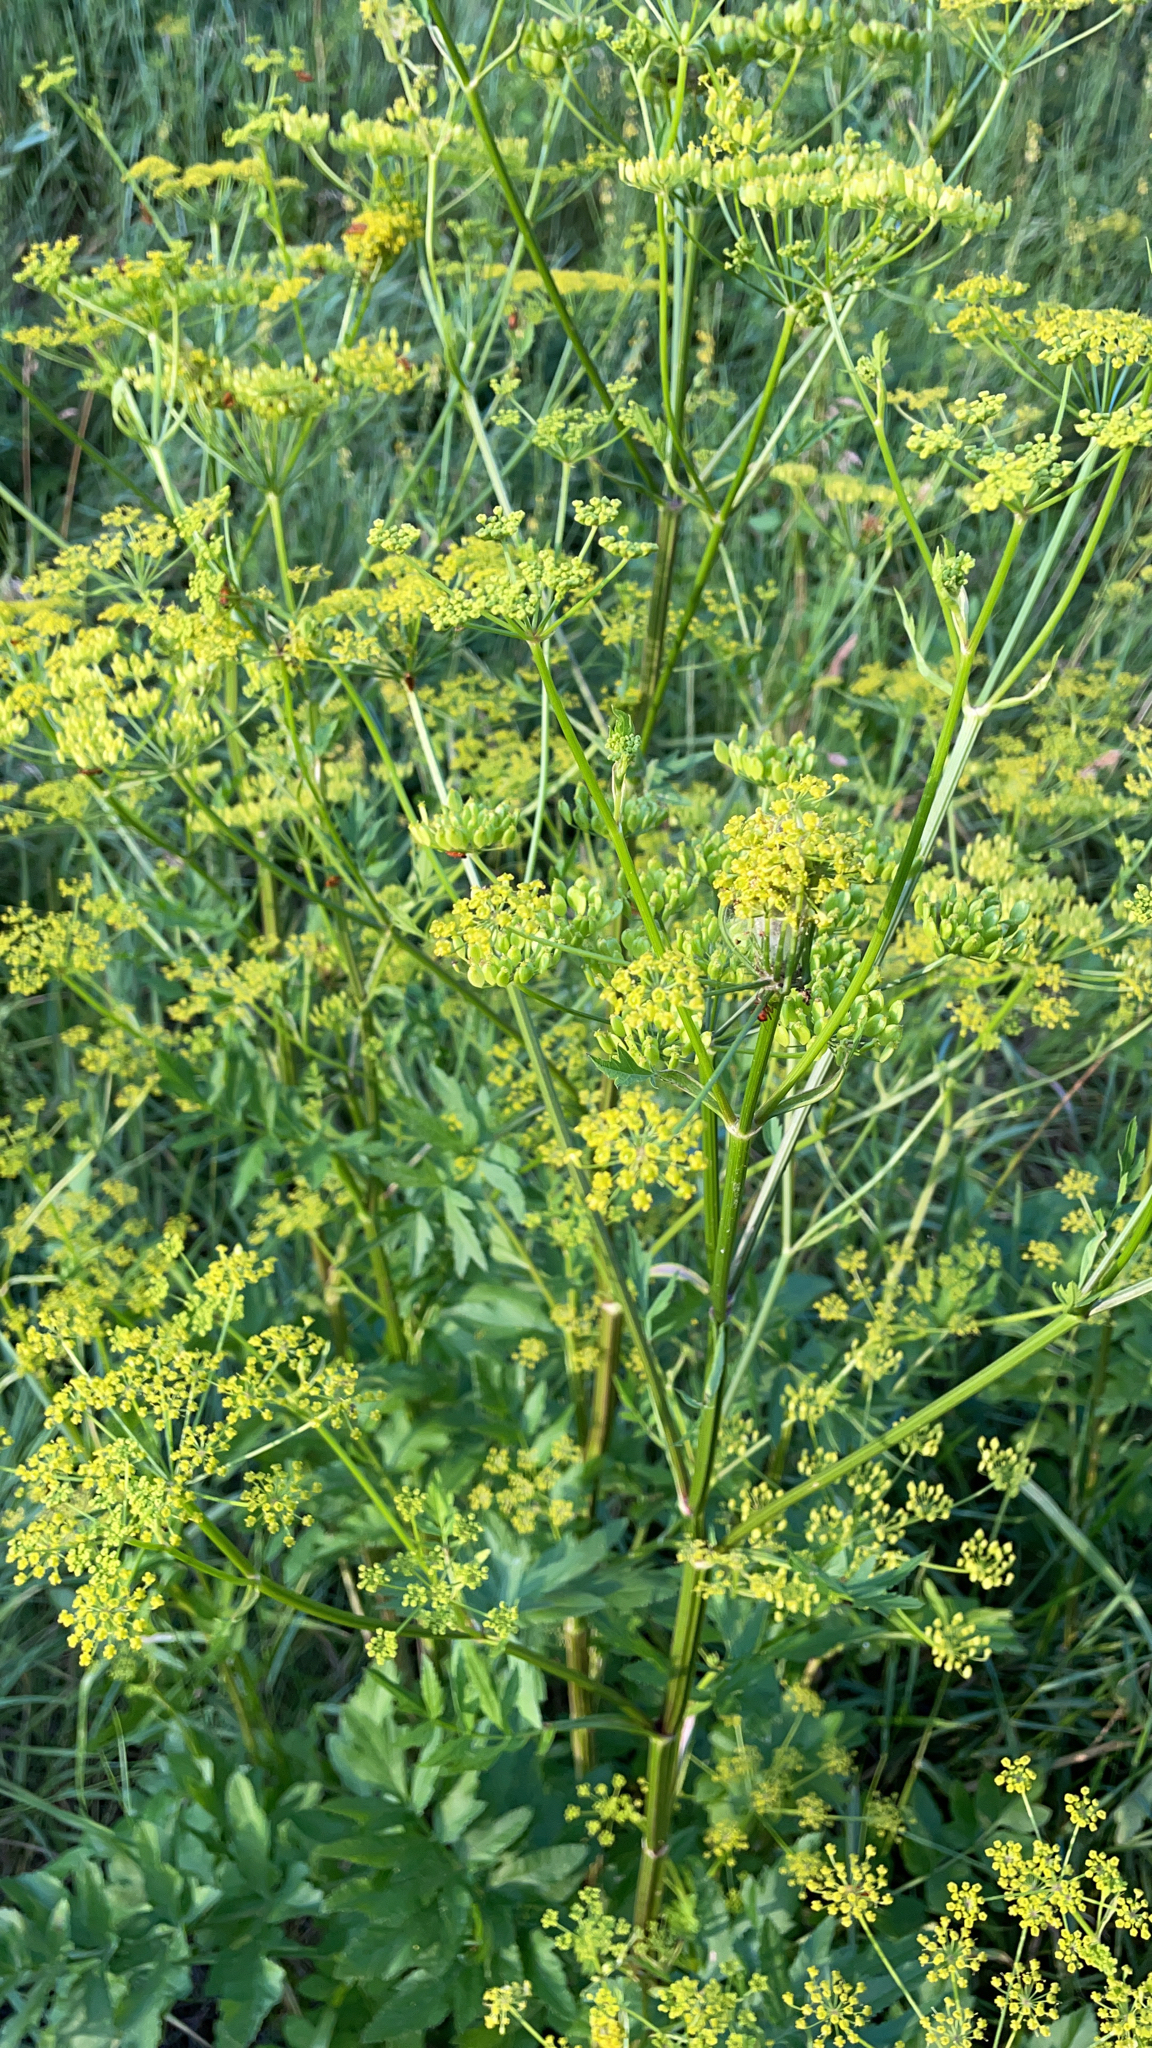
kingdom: Plantae
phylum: Tracheophyta
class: Magnoliopsida
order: Apiales
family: Apiaceae
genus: Pastinaca
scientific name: Pastinaca sativa
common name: Wild parsnip
